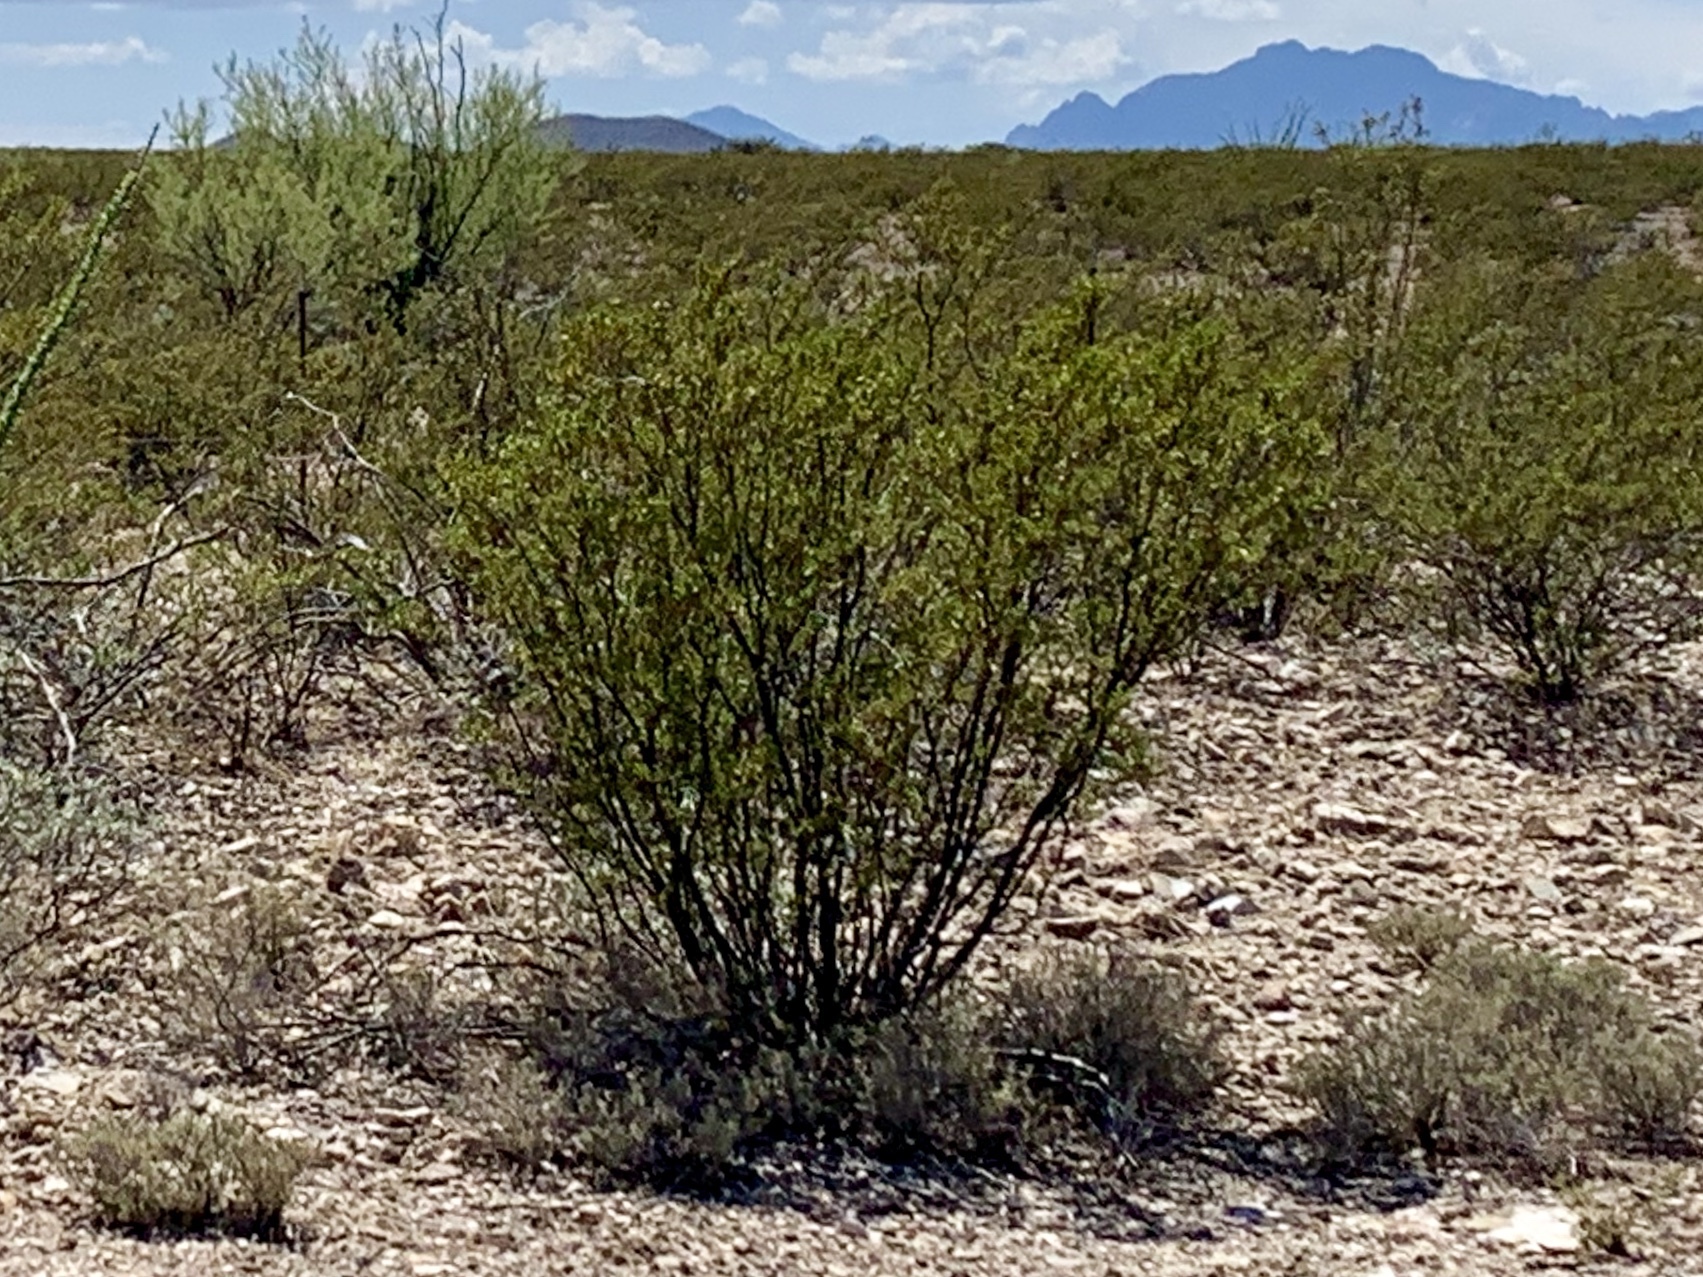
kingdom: Plantae
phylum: Tracheophyta
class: Magnoliopsida
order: Zygophyllales
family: Zygophyllaceae
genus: Larrea
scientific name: Larrea tridentata
